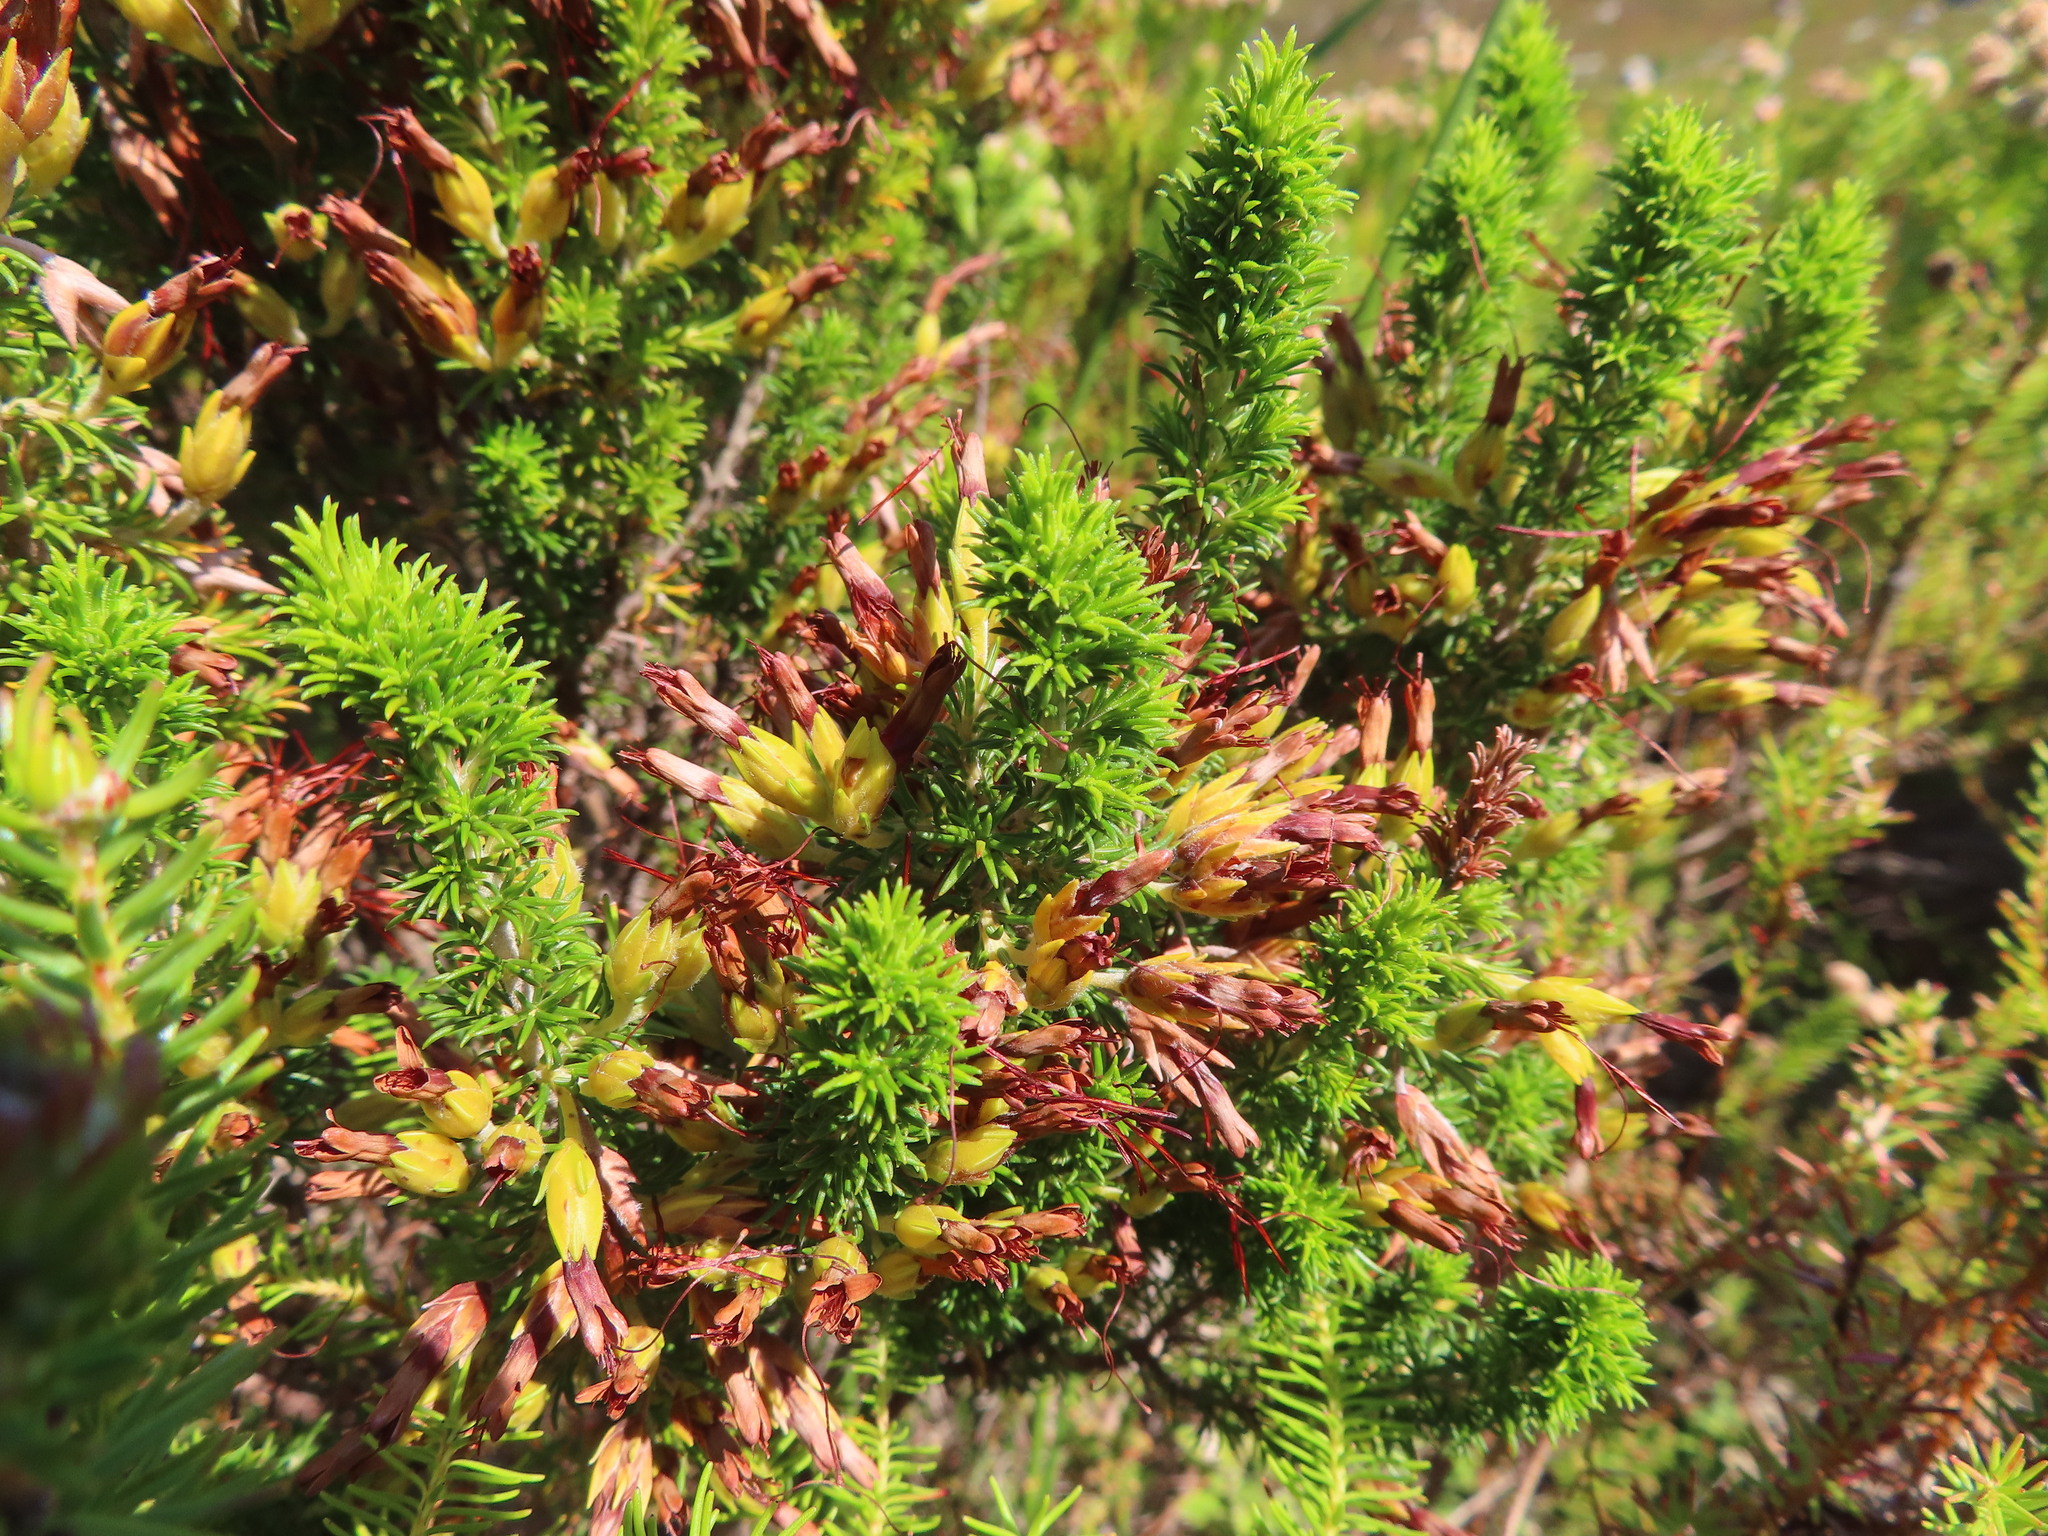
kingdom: Plantae
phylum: Tracheophyta
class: Magnoliopsida
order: Ericales
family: Ericaceae
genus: Erica
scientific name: Erica coccinea
